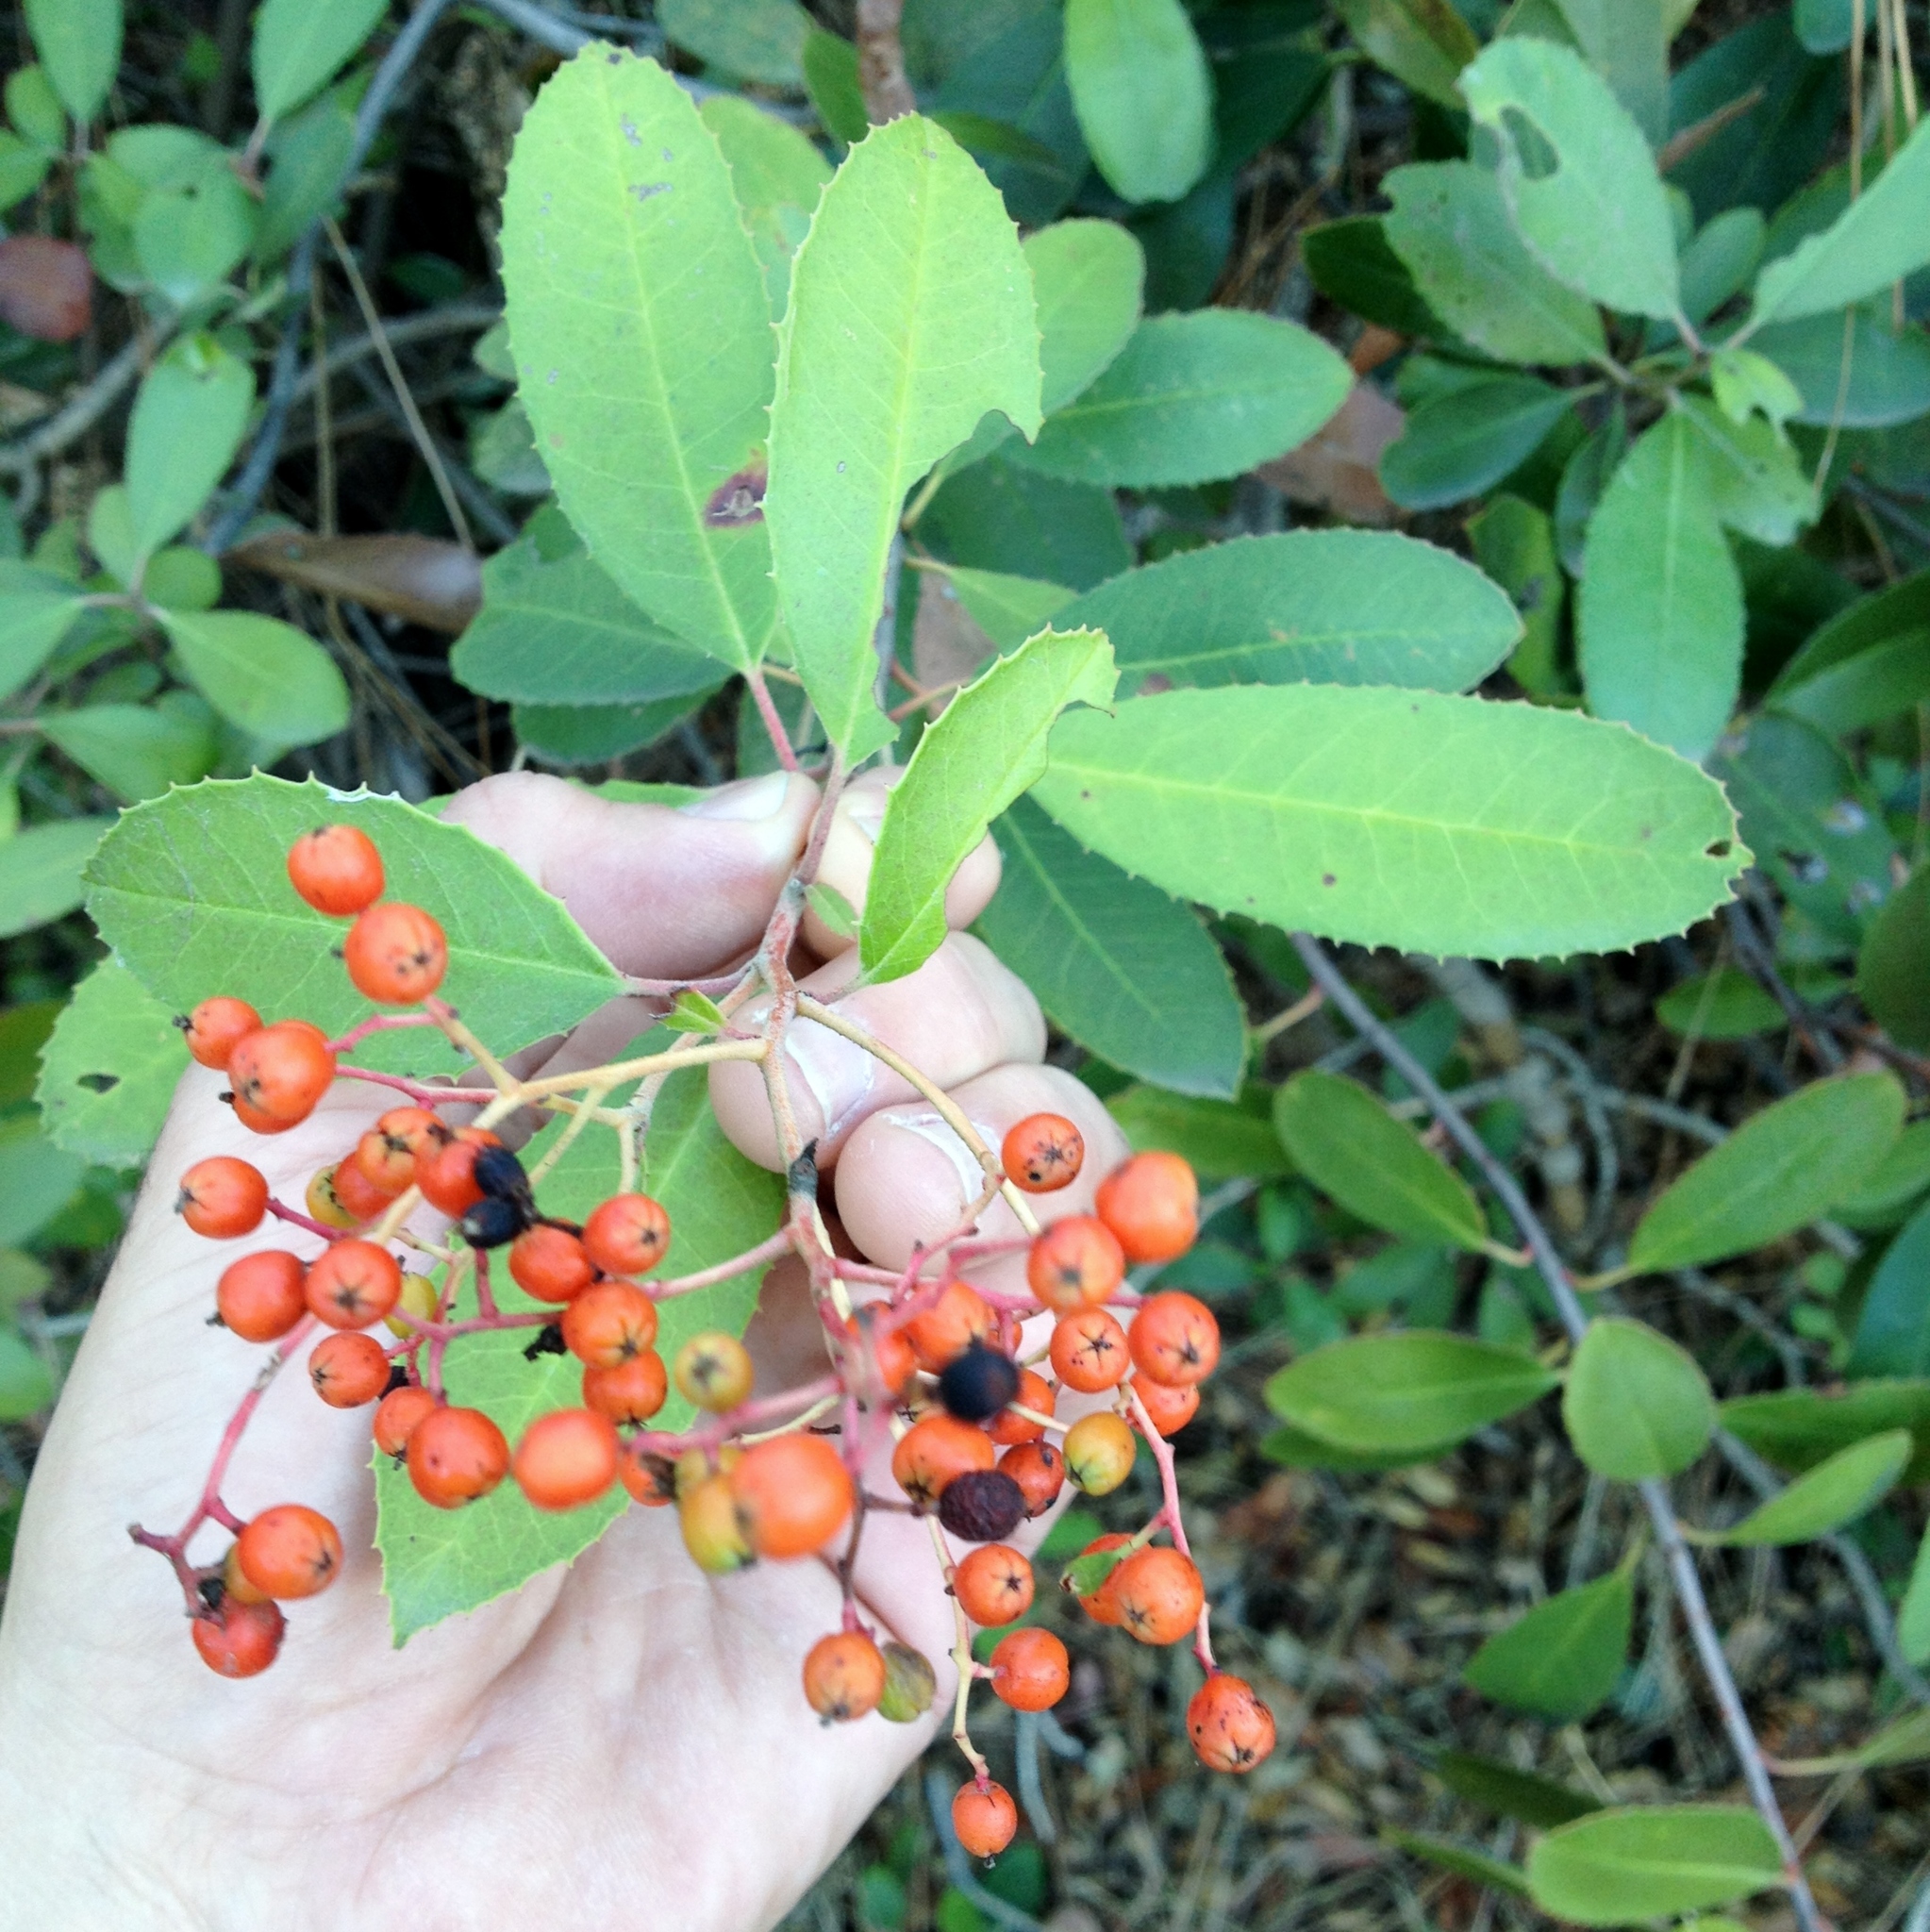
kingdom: Plantae
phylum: Tracheophyta
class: Magnoliopsida
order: Rosales
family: Rosaceae
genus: Heteromeles
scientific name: Heteromeles arbutifolia
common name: California-holly
